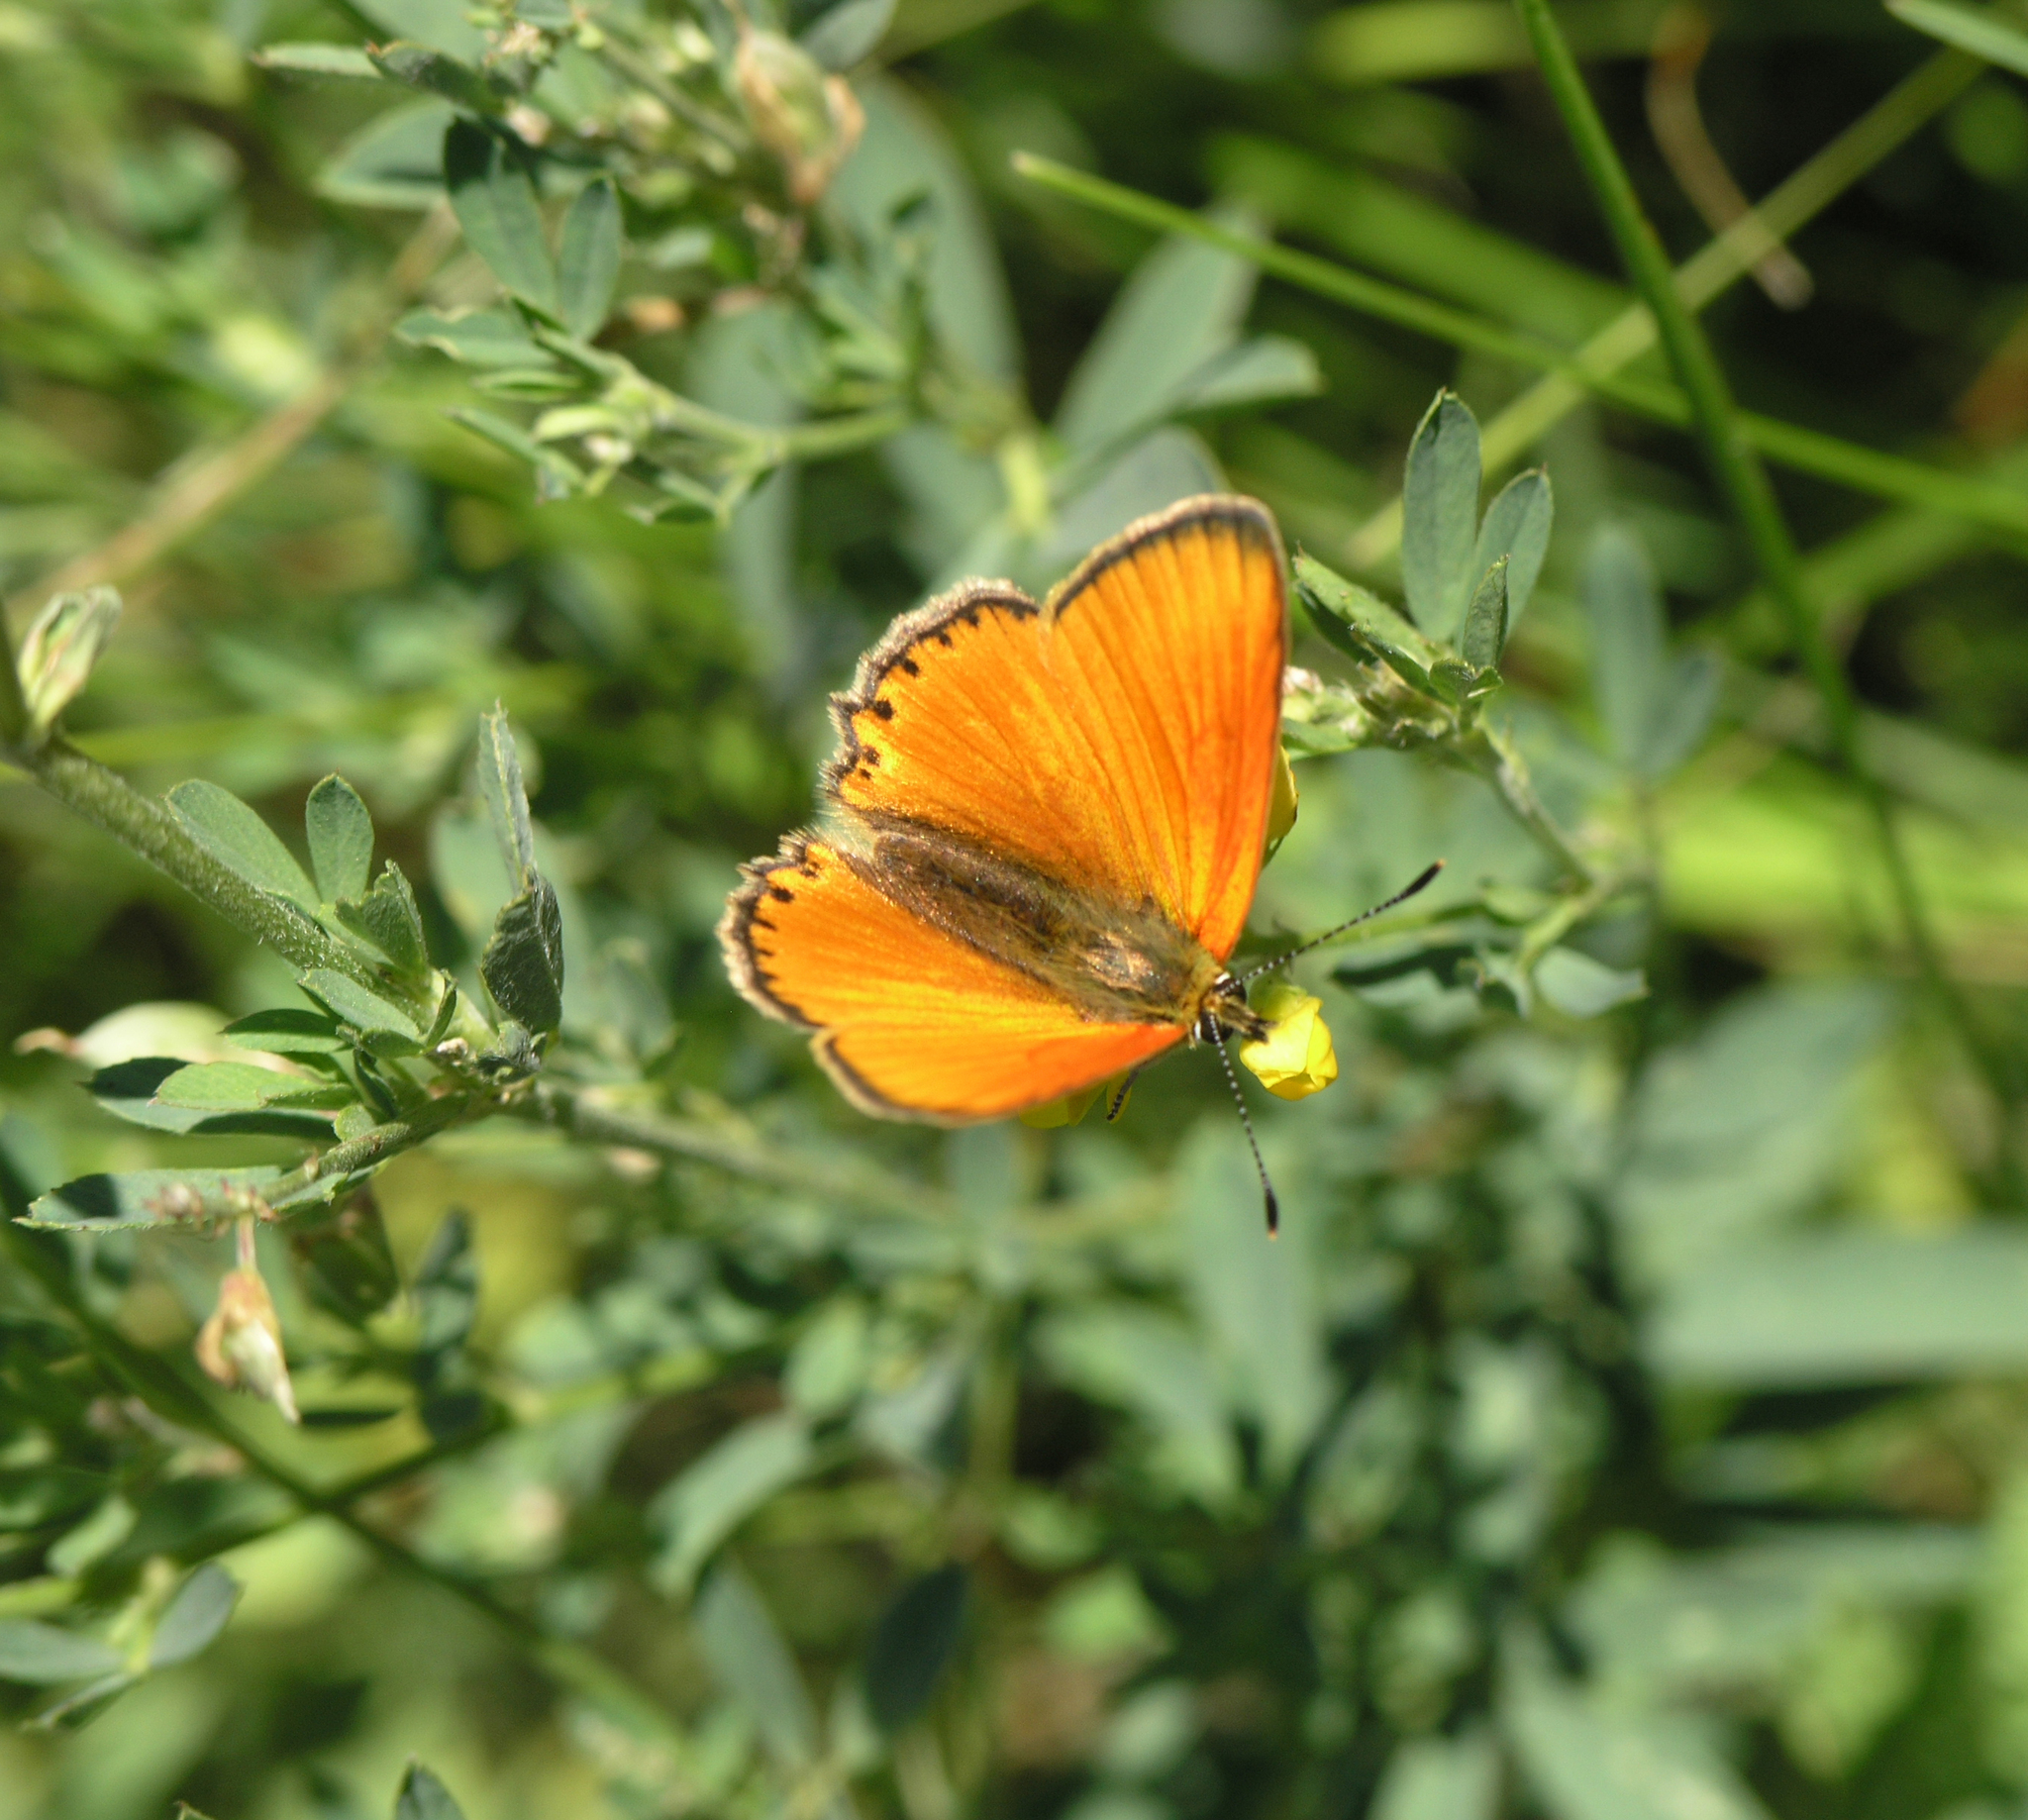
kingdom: Animalia
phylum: Arthropoda
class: Insecta
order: Lepidoptera
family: Lycaenidae
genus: Lycaena
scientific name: Lycaena virgaureae
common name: Scarce copper
